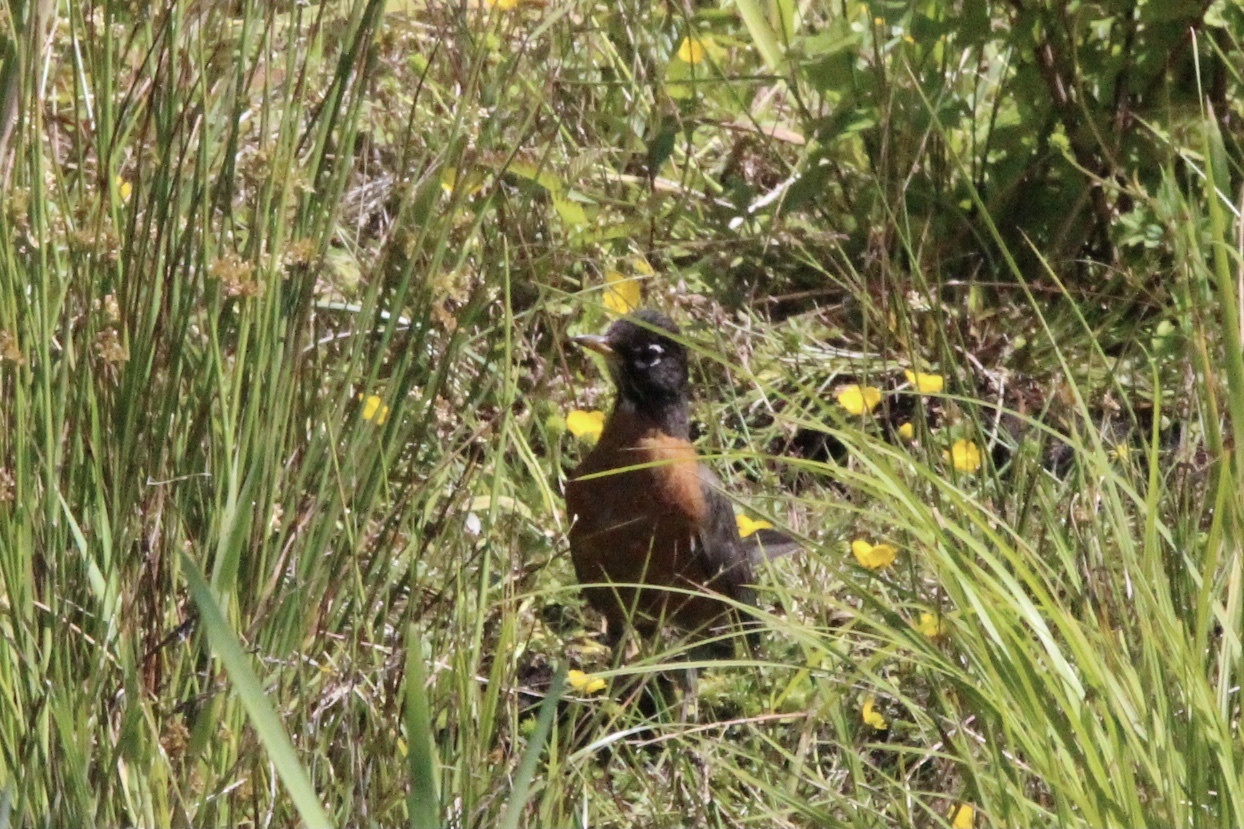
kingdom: Animalia
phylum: Chordata
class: Aves
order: Passeriformes
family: Turdidae
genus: Turdus
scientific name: Turdus migratorius
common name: American robin
